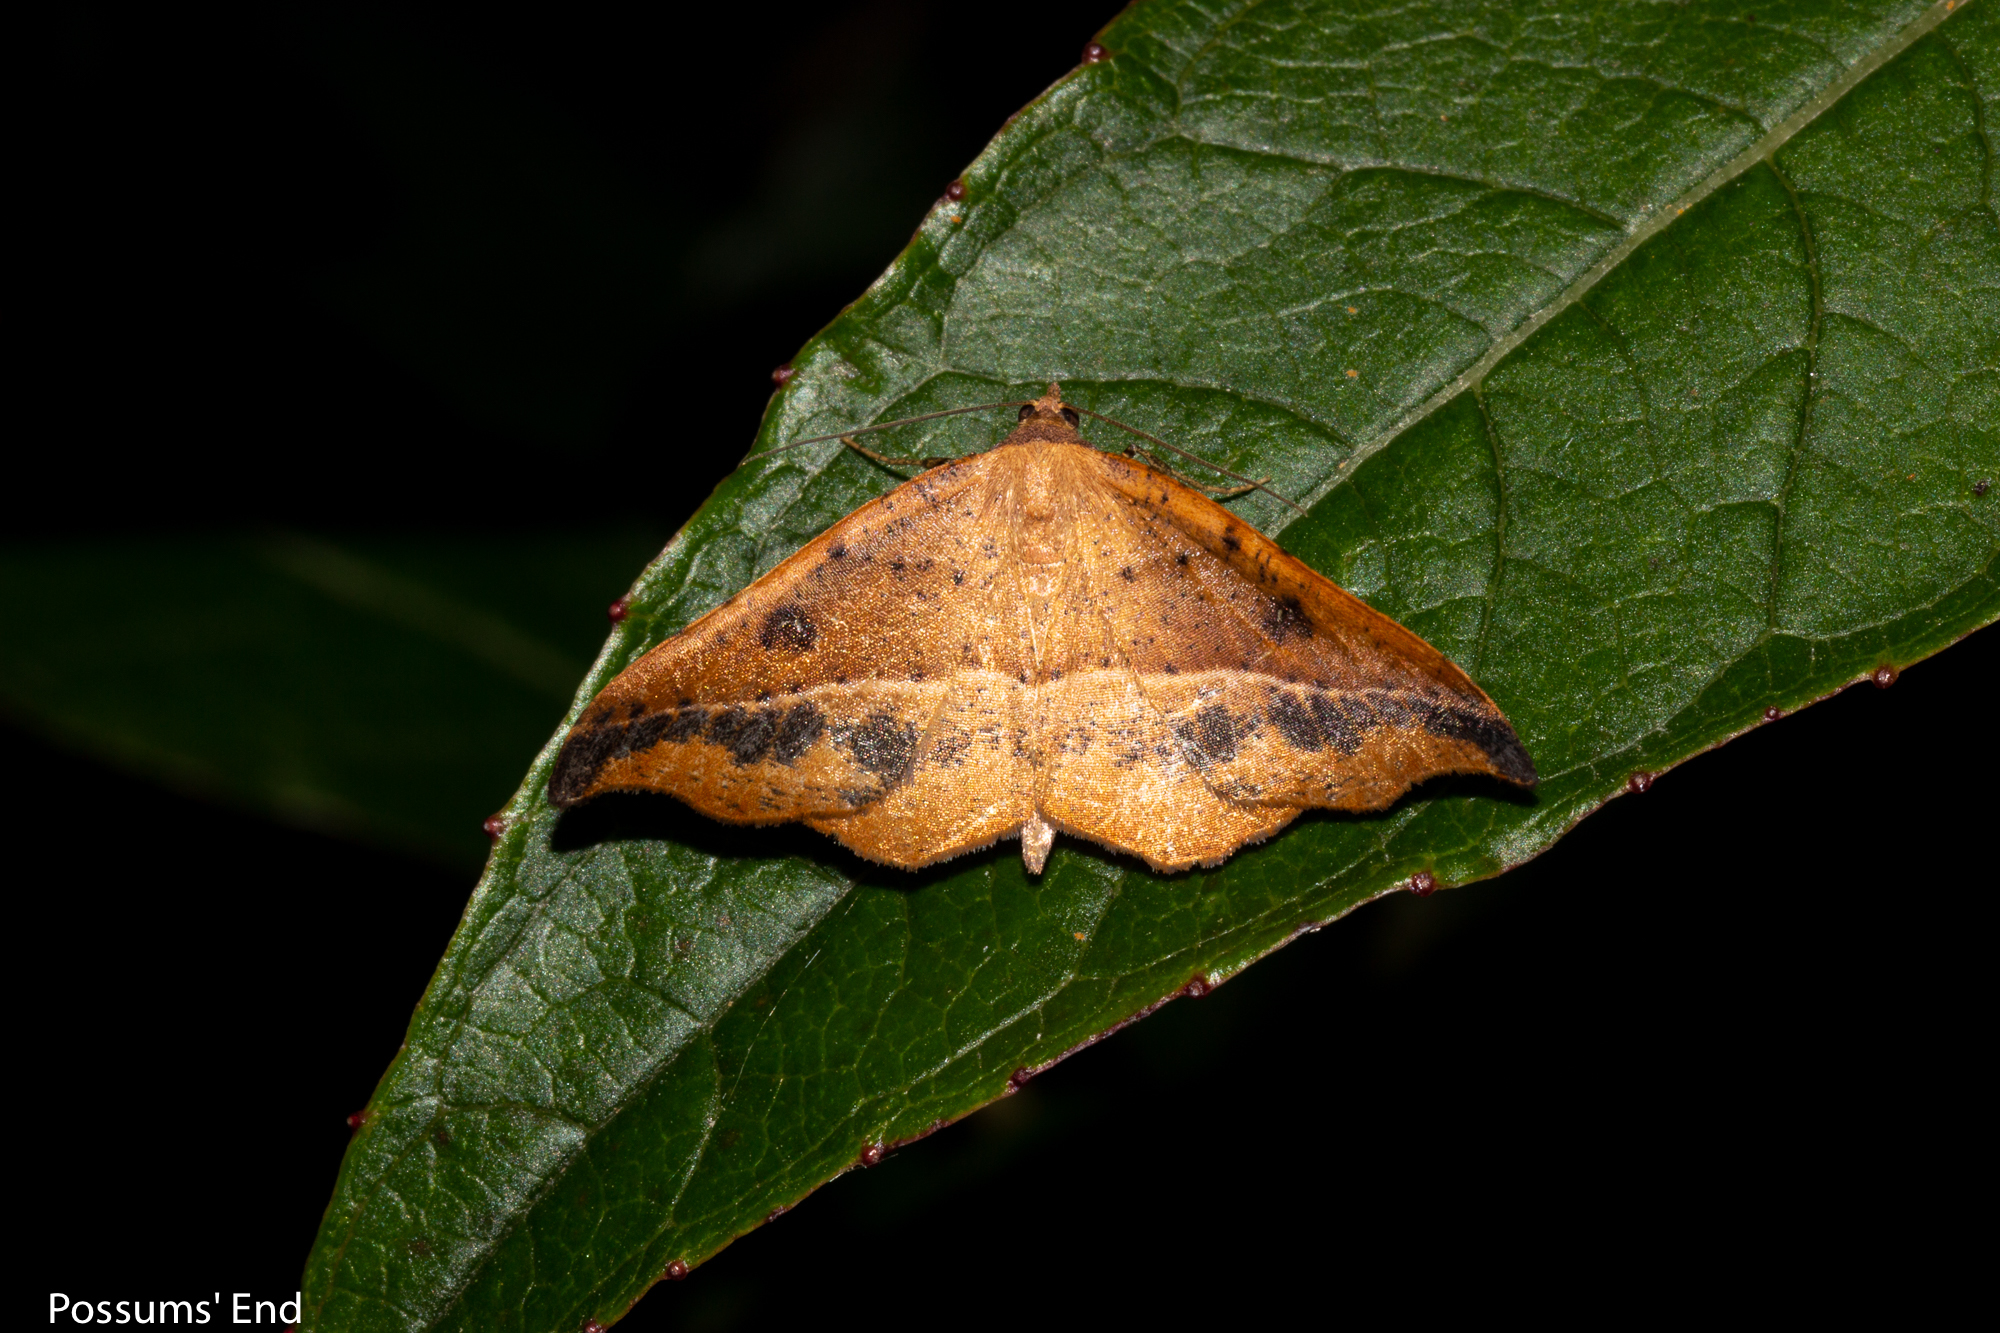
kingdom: Animalia
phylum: Arthropoda
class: Insecta
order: Lepidoptera
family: Geometridae
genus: Sarisa
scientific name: Sarisa muriferata
